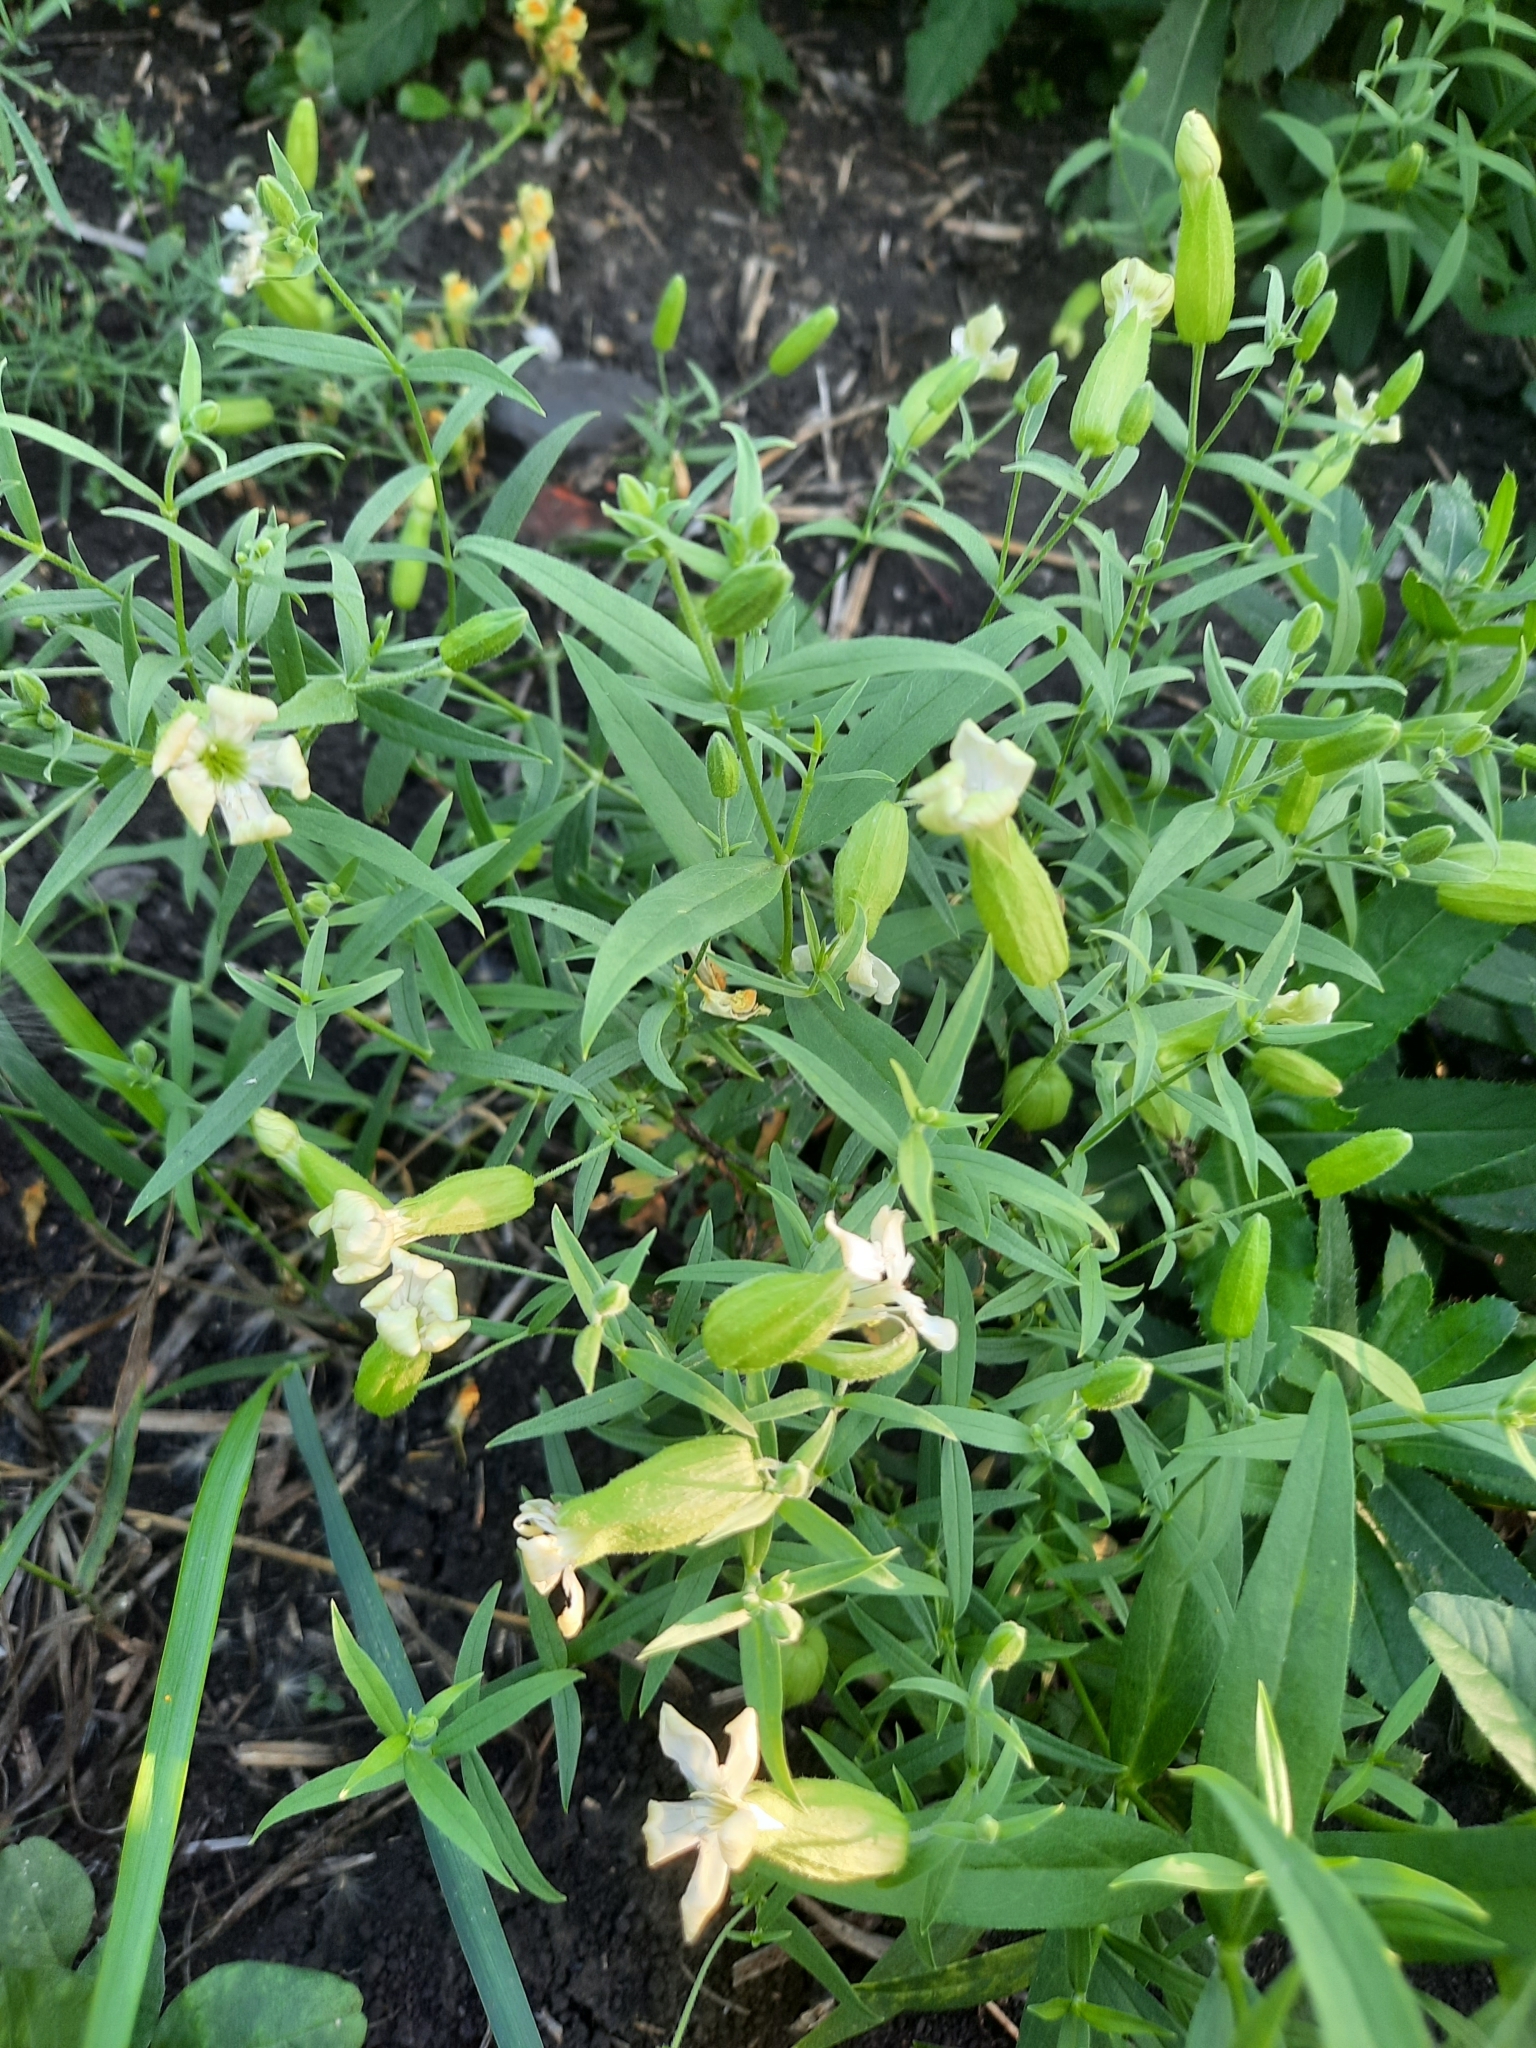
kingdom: Plantae
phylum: Tracheophyta
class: Magnoliopsida
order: Caryophyllales
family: Caryophyllaceae
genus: Silene
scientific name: Silene procumbens
